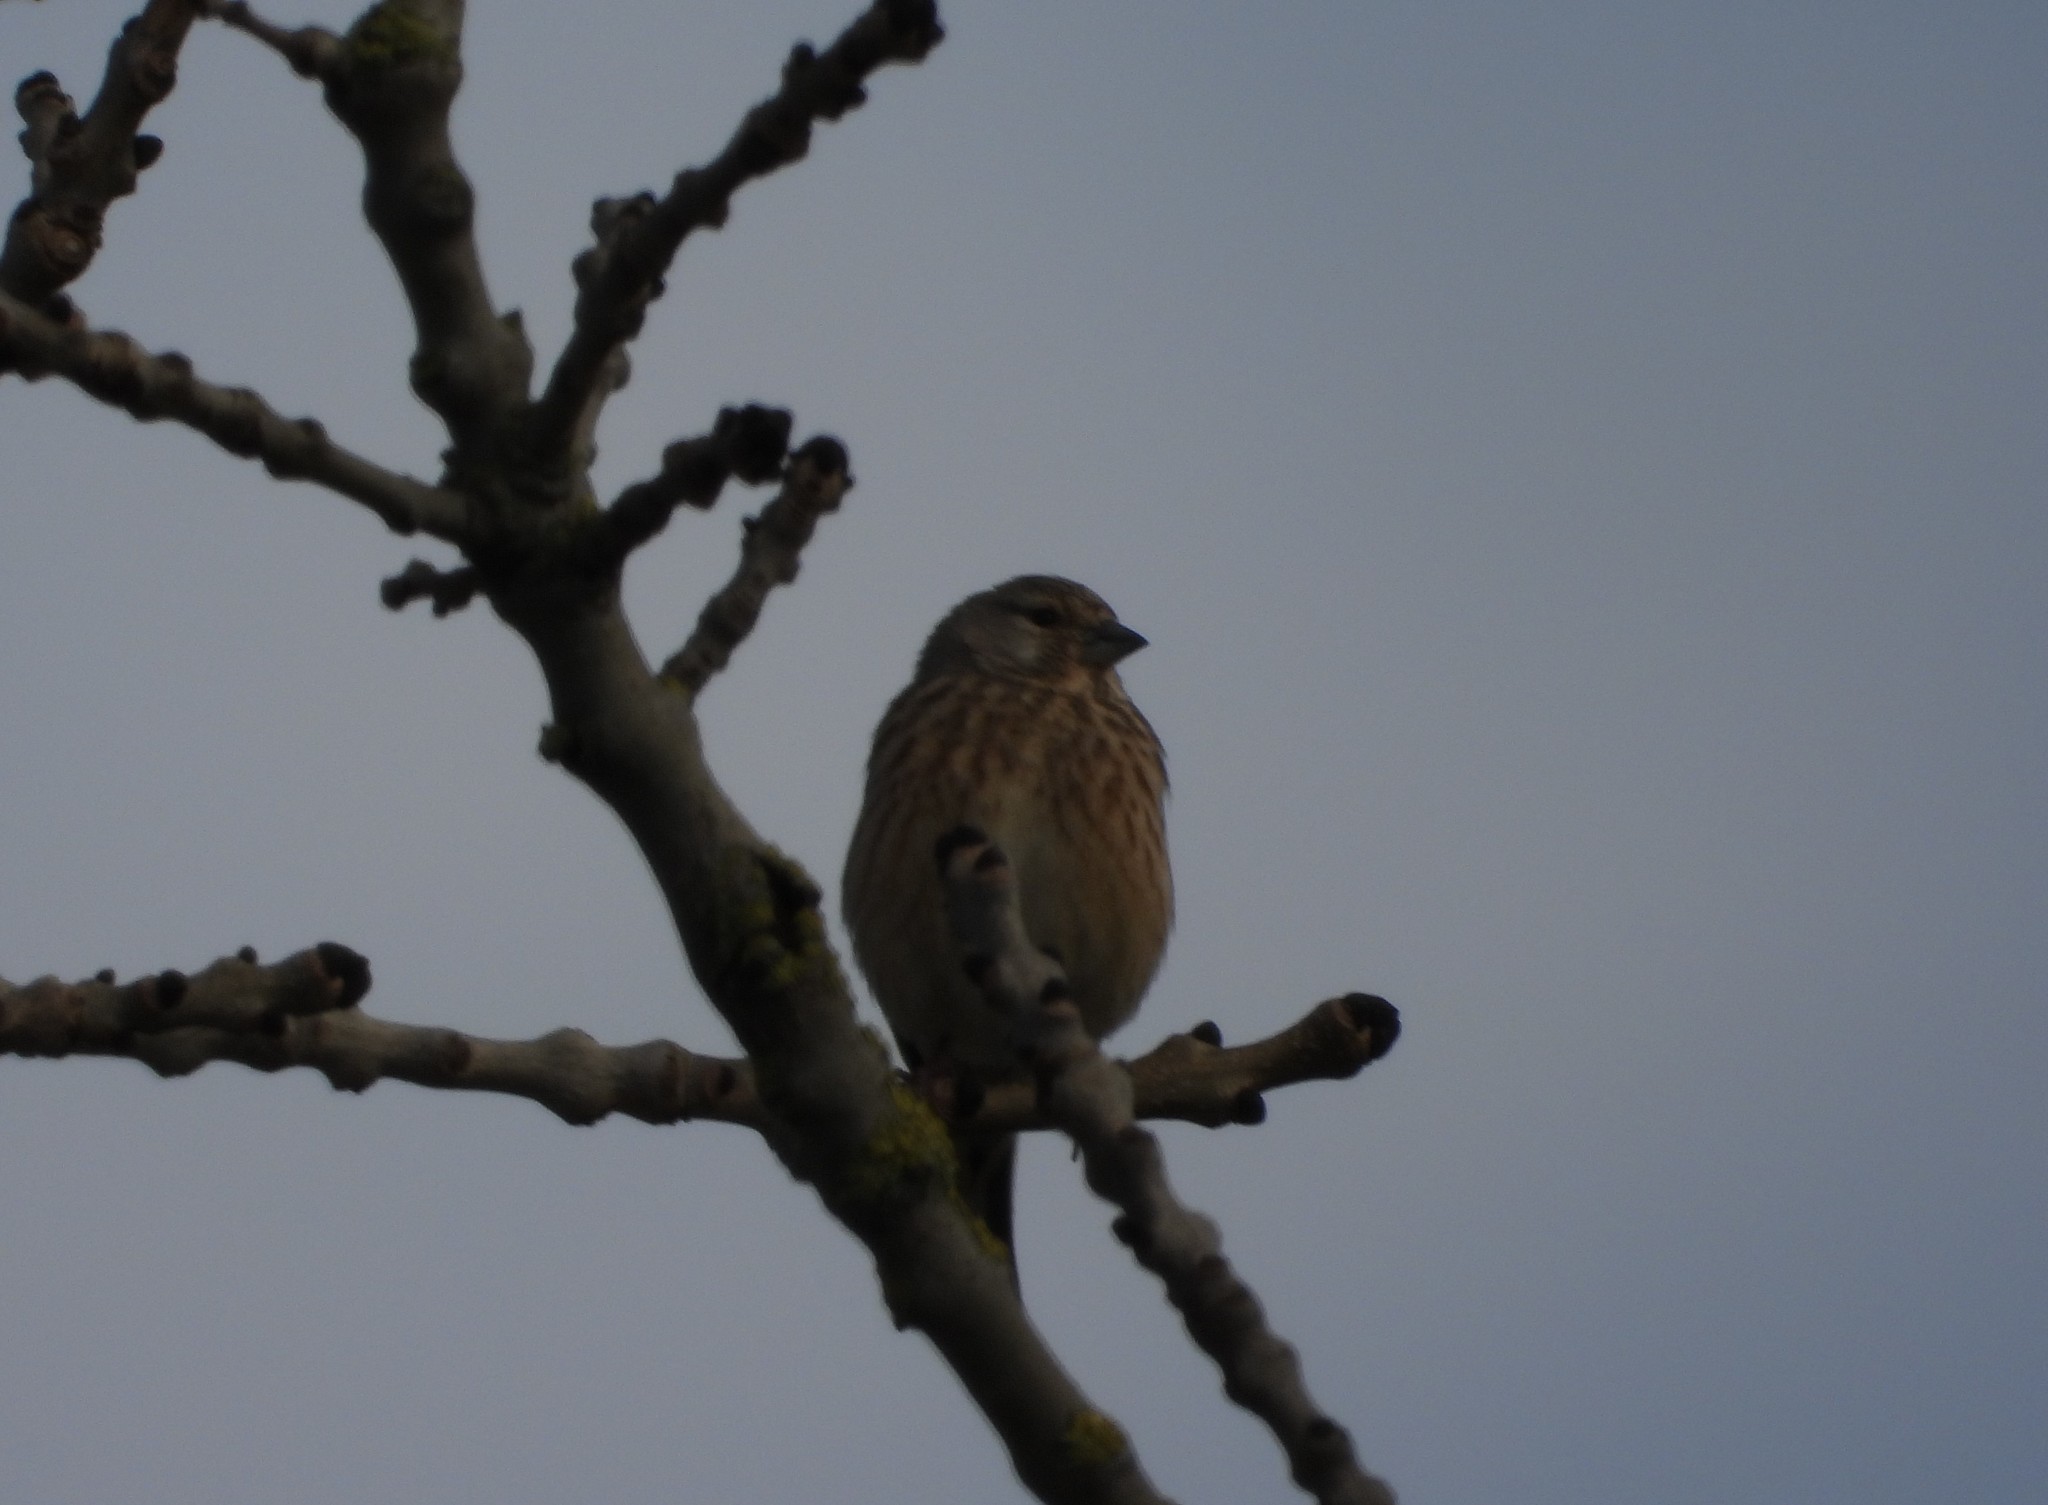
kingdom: Animalia
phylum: Chordata
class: Aves
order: Passeriformes
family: Fringillidae
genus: Linaria
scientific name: Linaria cannabina
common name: Common linnet
